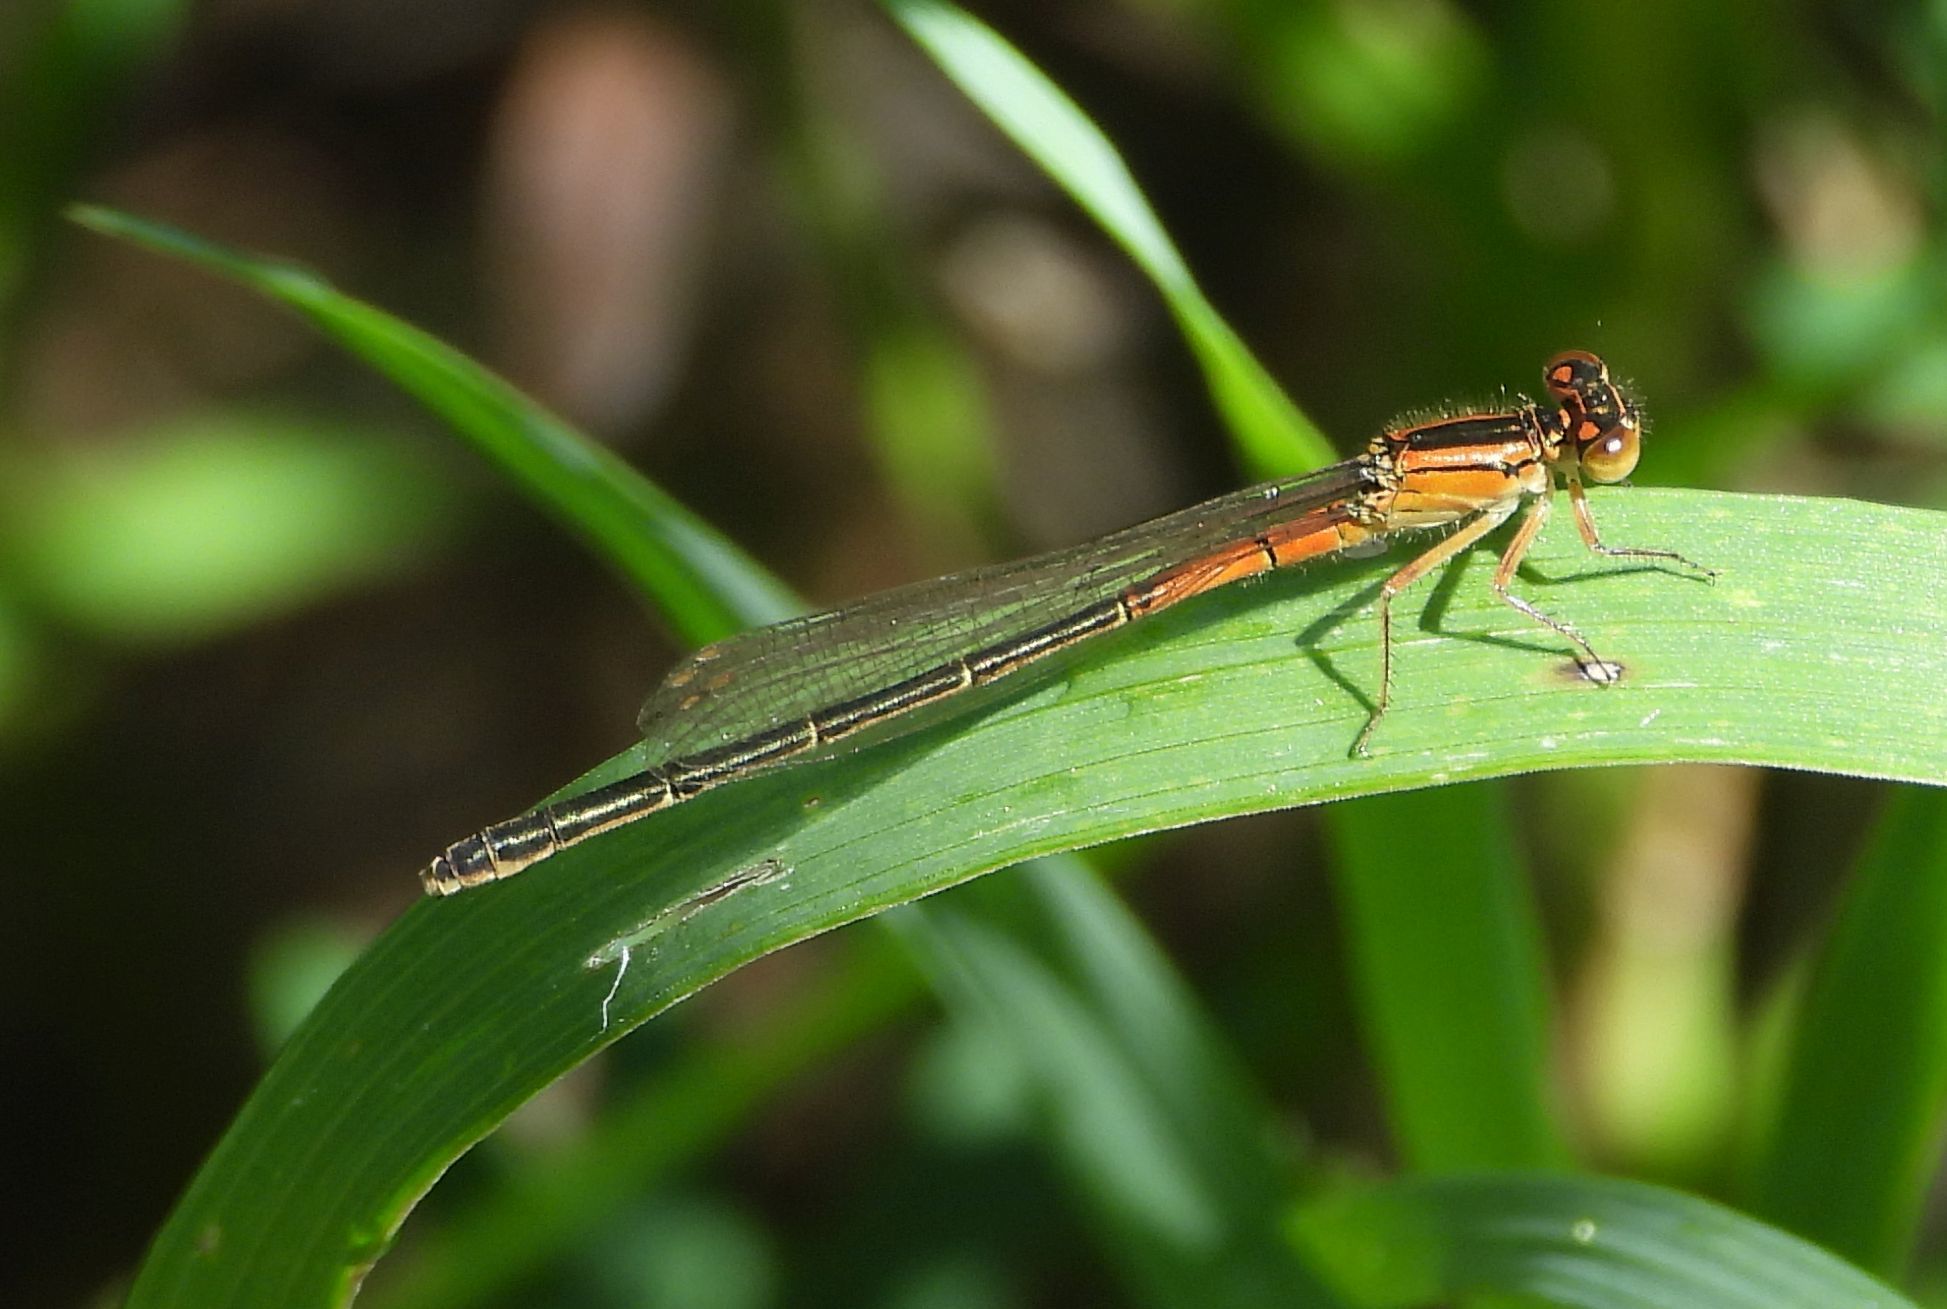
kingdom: Animalia
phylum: Arthropoda
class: Insecta
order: Odonata
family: Coenagrionidae
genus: Ischnura
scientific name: Ischnura verticalis
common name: Eastern forktail
